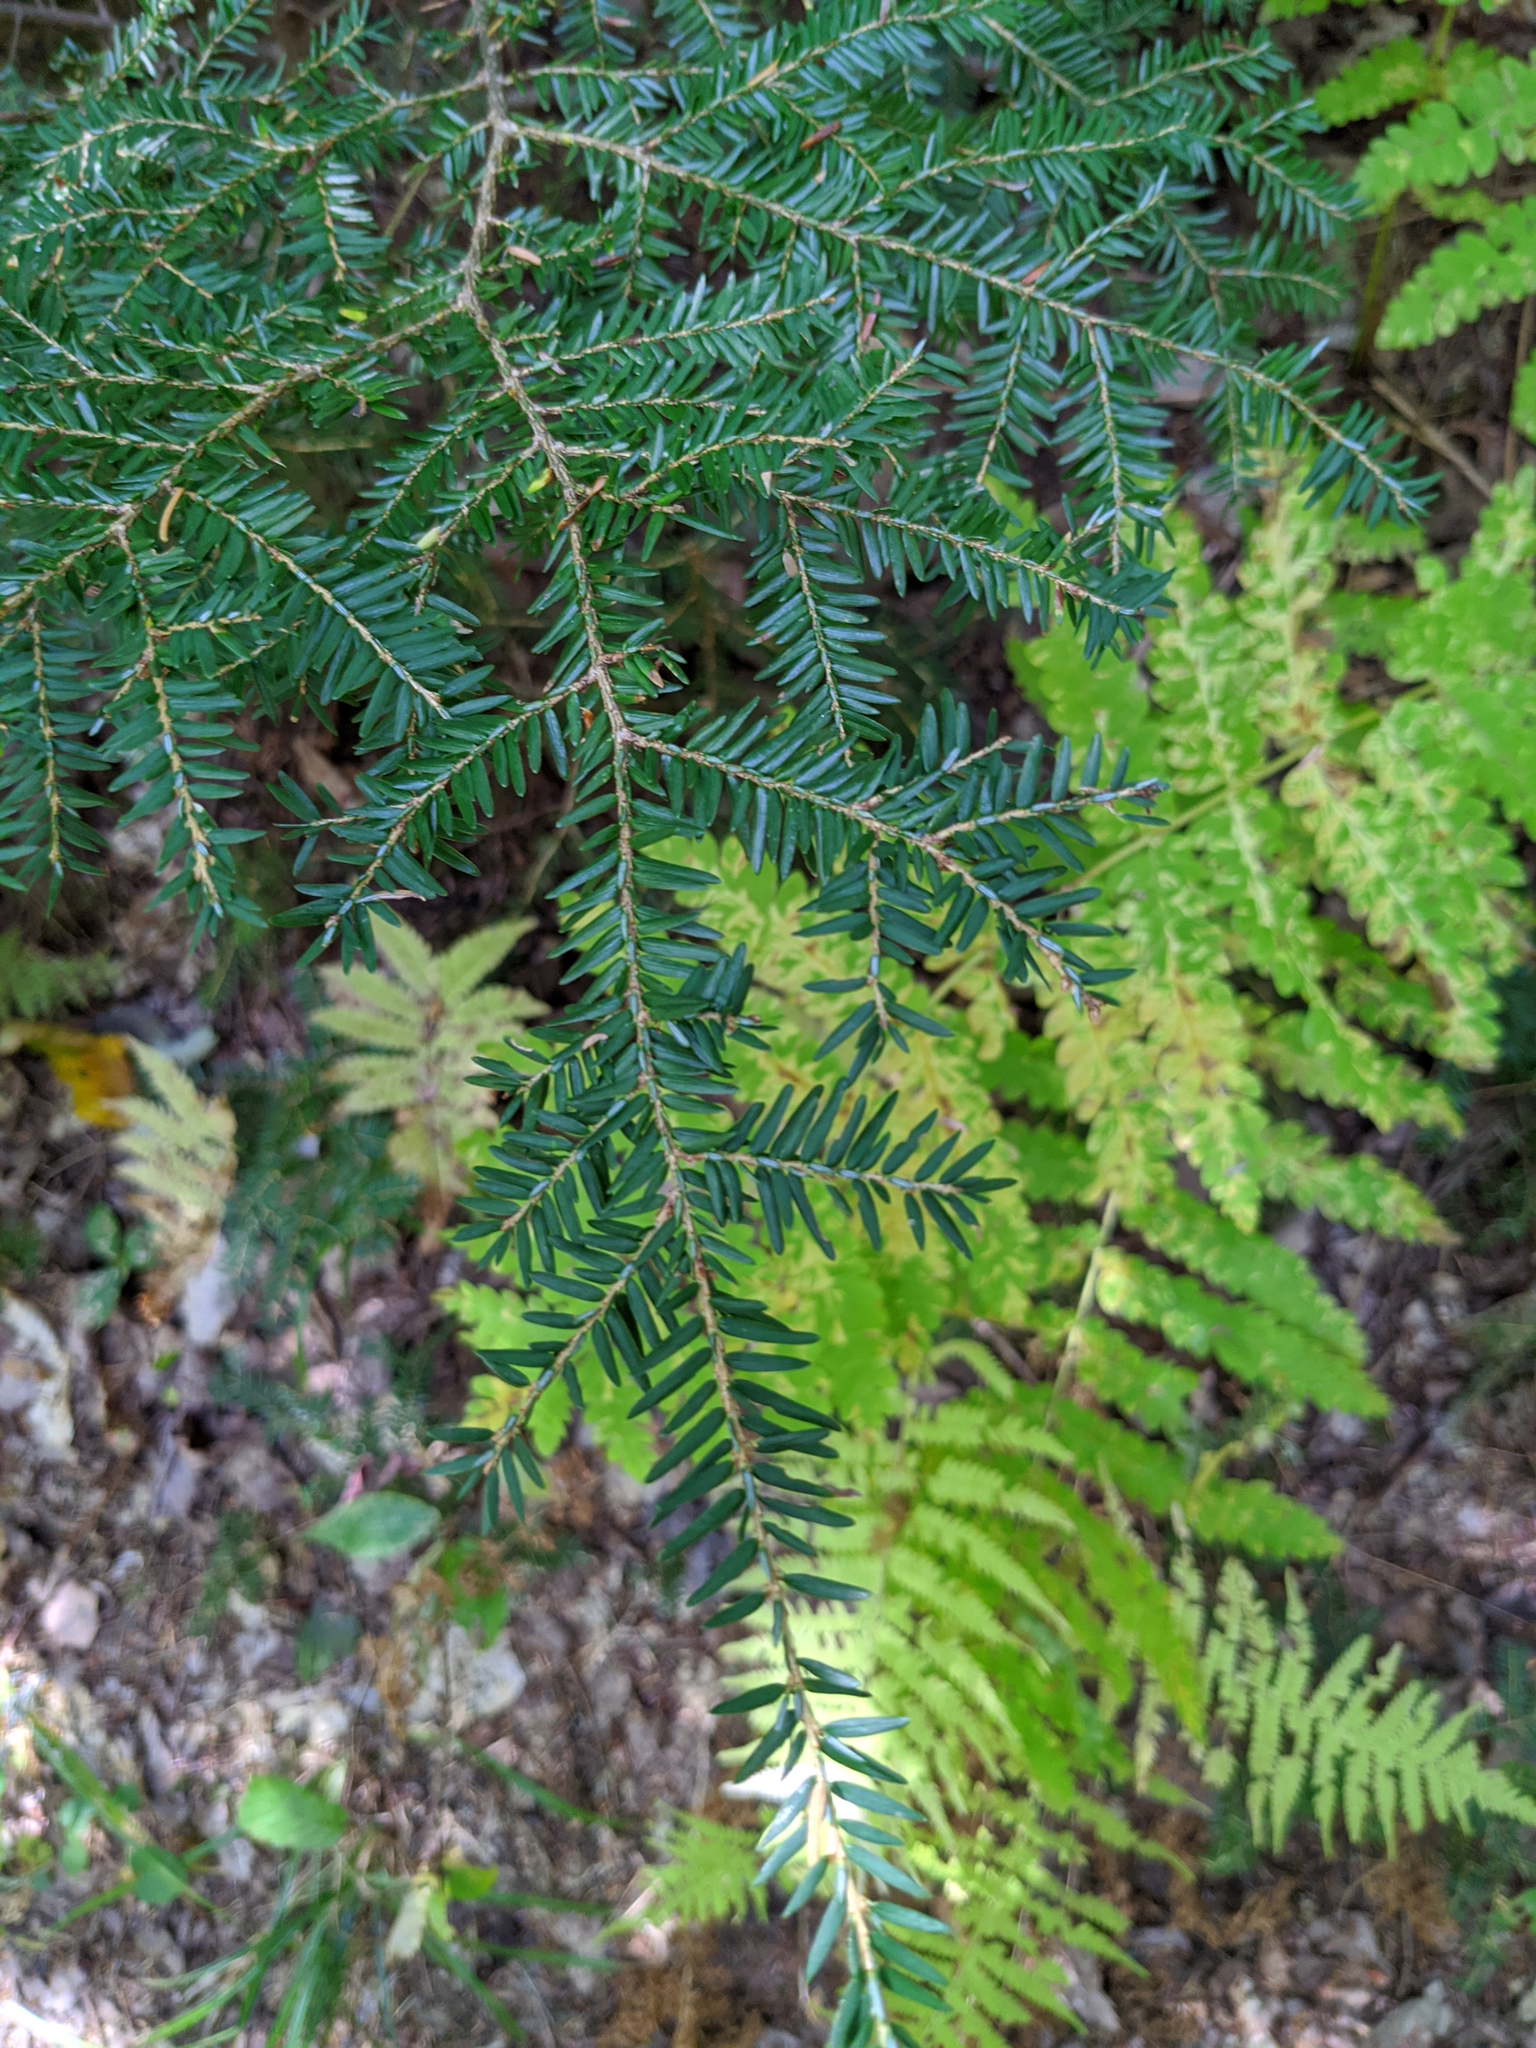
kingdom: Plantae
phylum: Tracheophyta
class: Pinopsida
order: Pinales
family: Pinaceae
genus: Tsuga
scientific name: Tsuga canadensis
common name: Eastern hemlock
